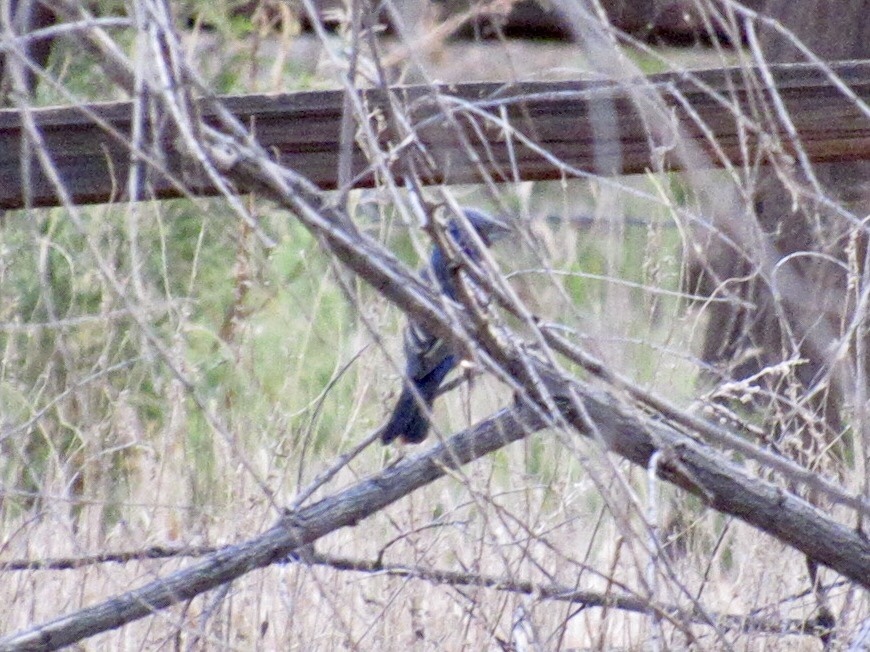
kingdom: Animalia
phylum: Chordata
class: Aves
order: Passeriformes
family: Cardinalidae
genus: Passerina
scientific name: Passerina caerulea
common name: Blue grosbeak
